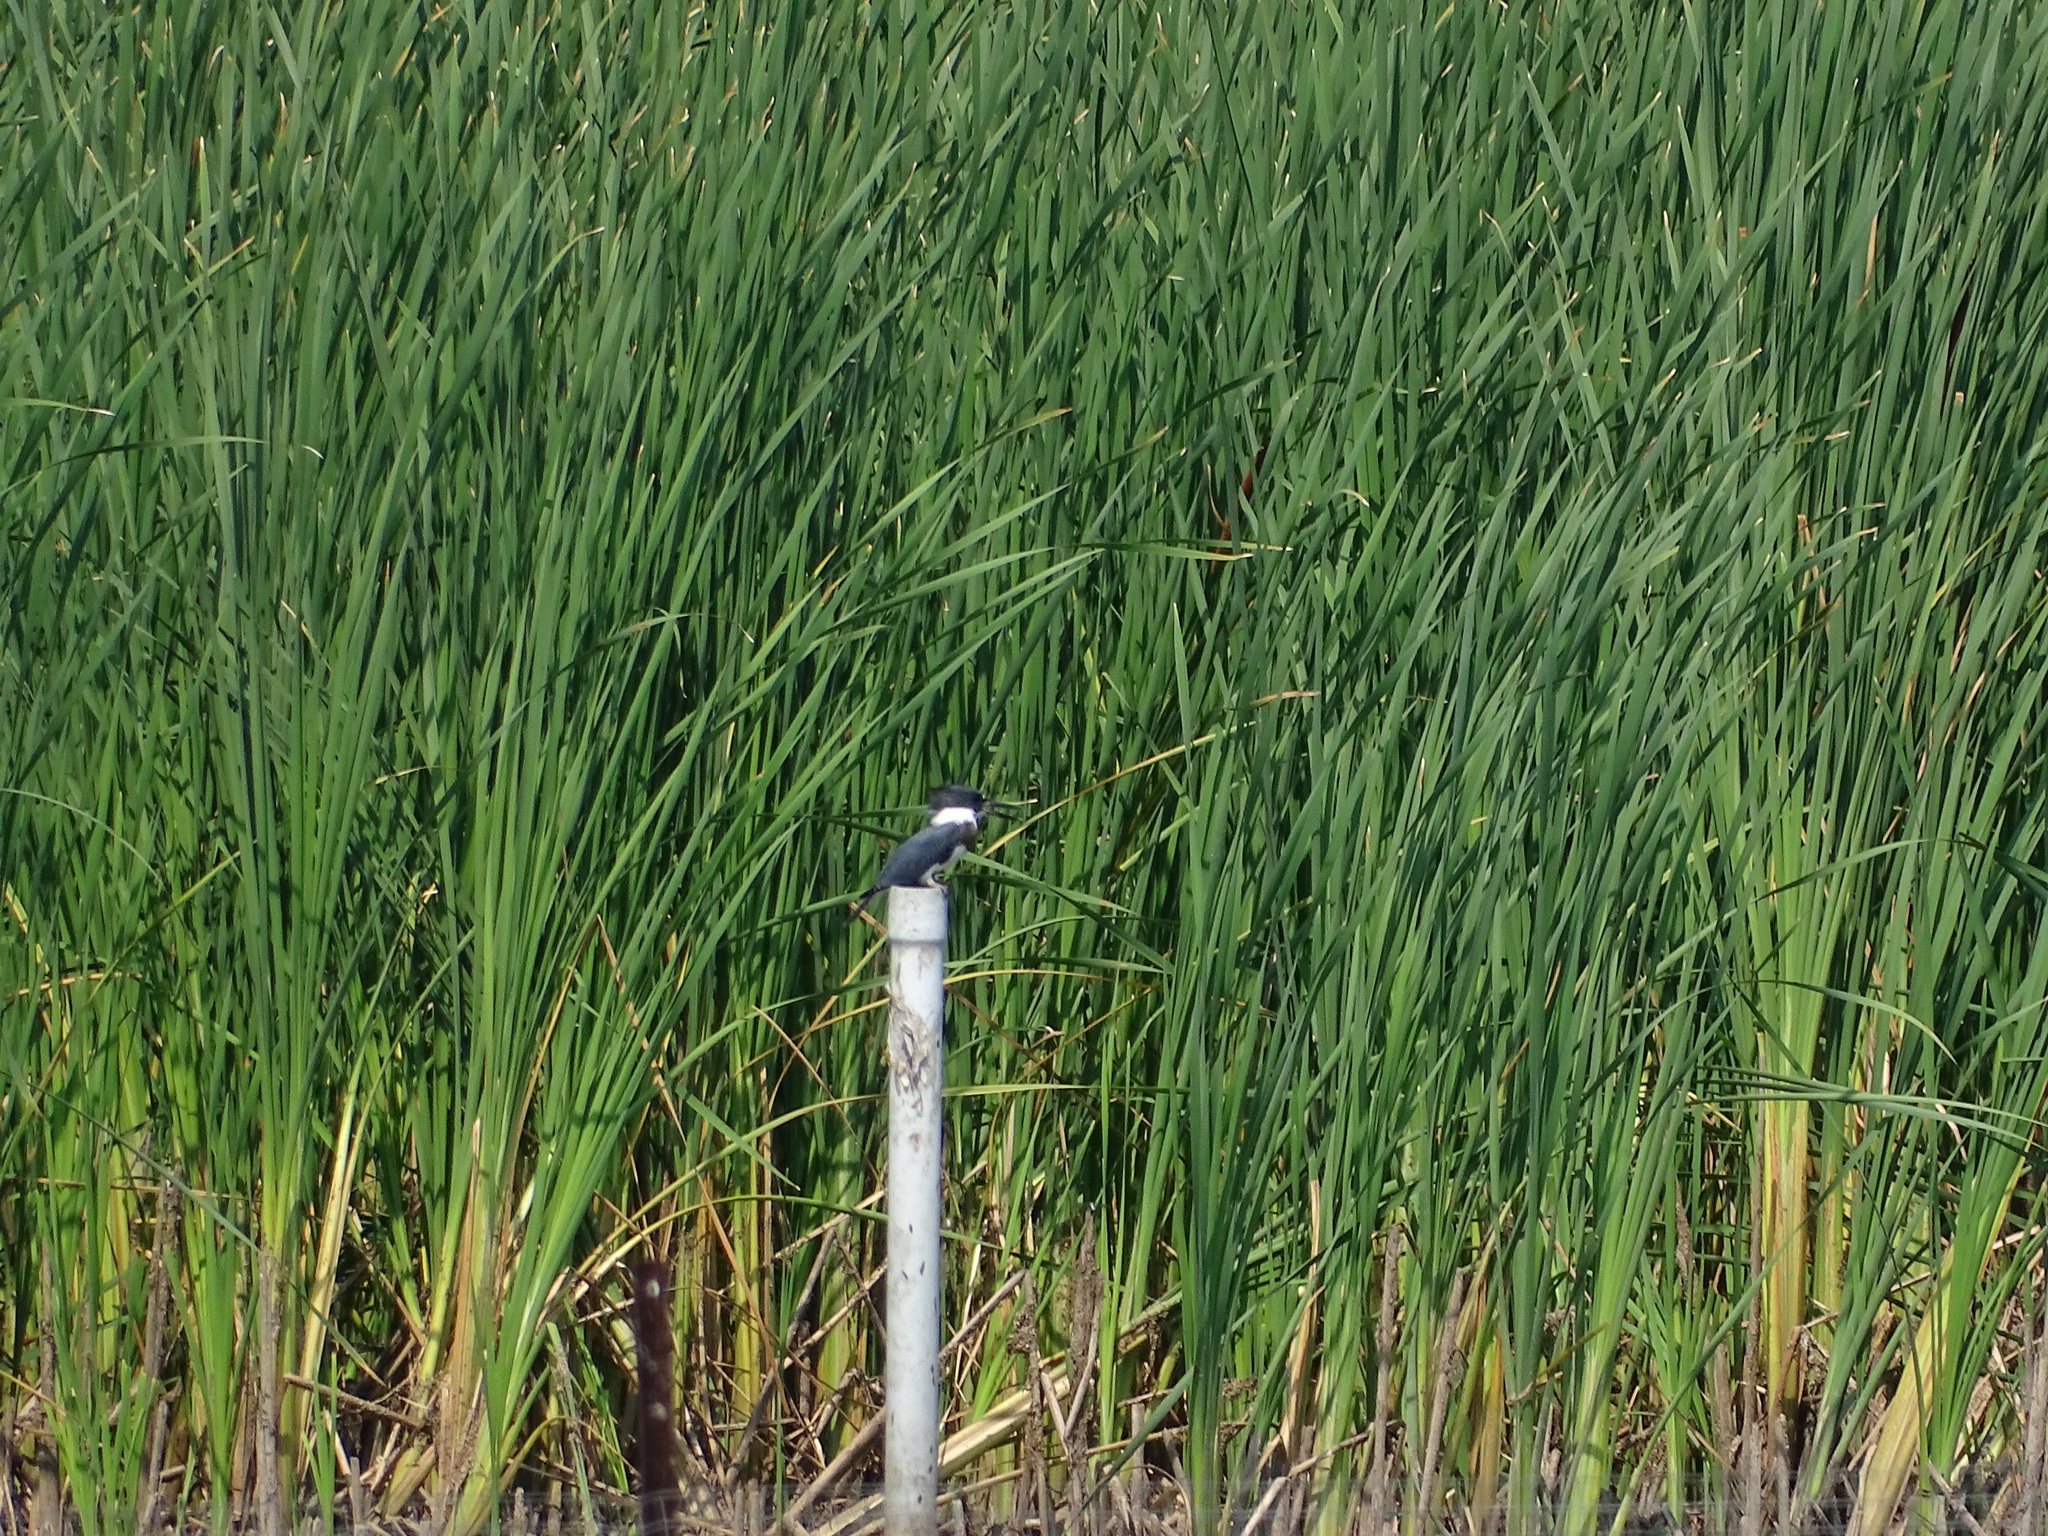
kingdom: Animalia
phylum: Chordata
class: Aves
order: Coraciiformes
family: Alcedinidae
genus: Megaceryle
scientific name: Megaceryle alcyon
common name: Belted kingfisher
